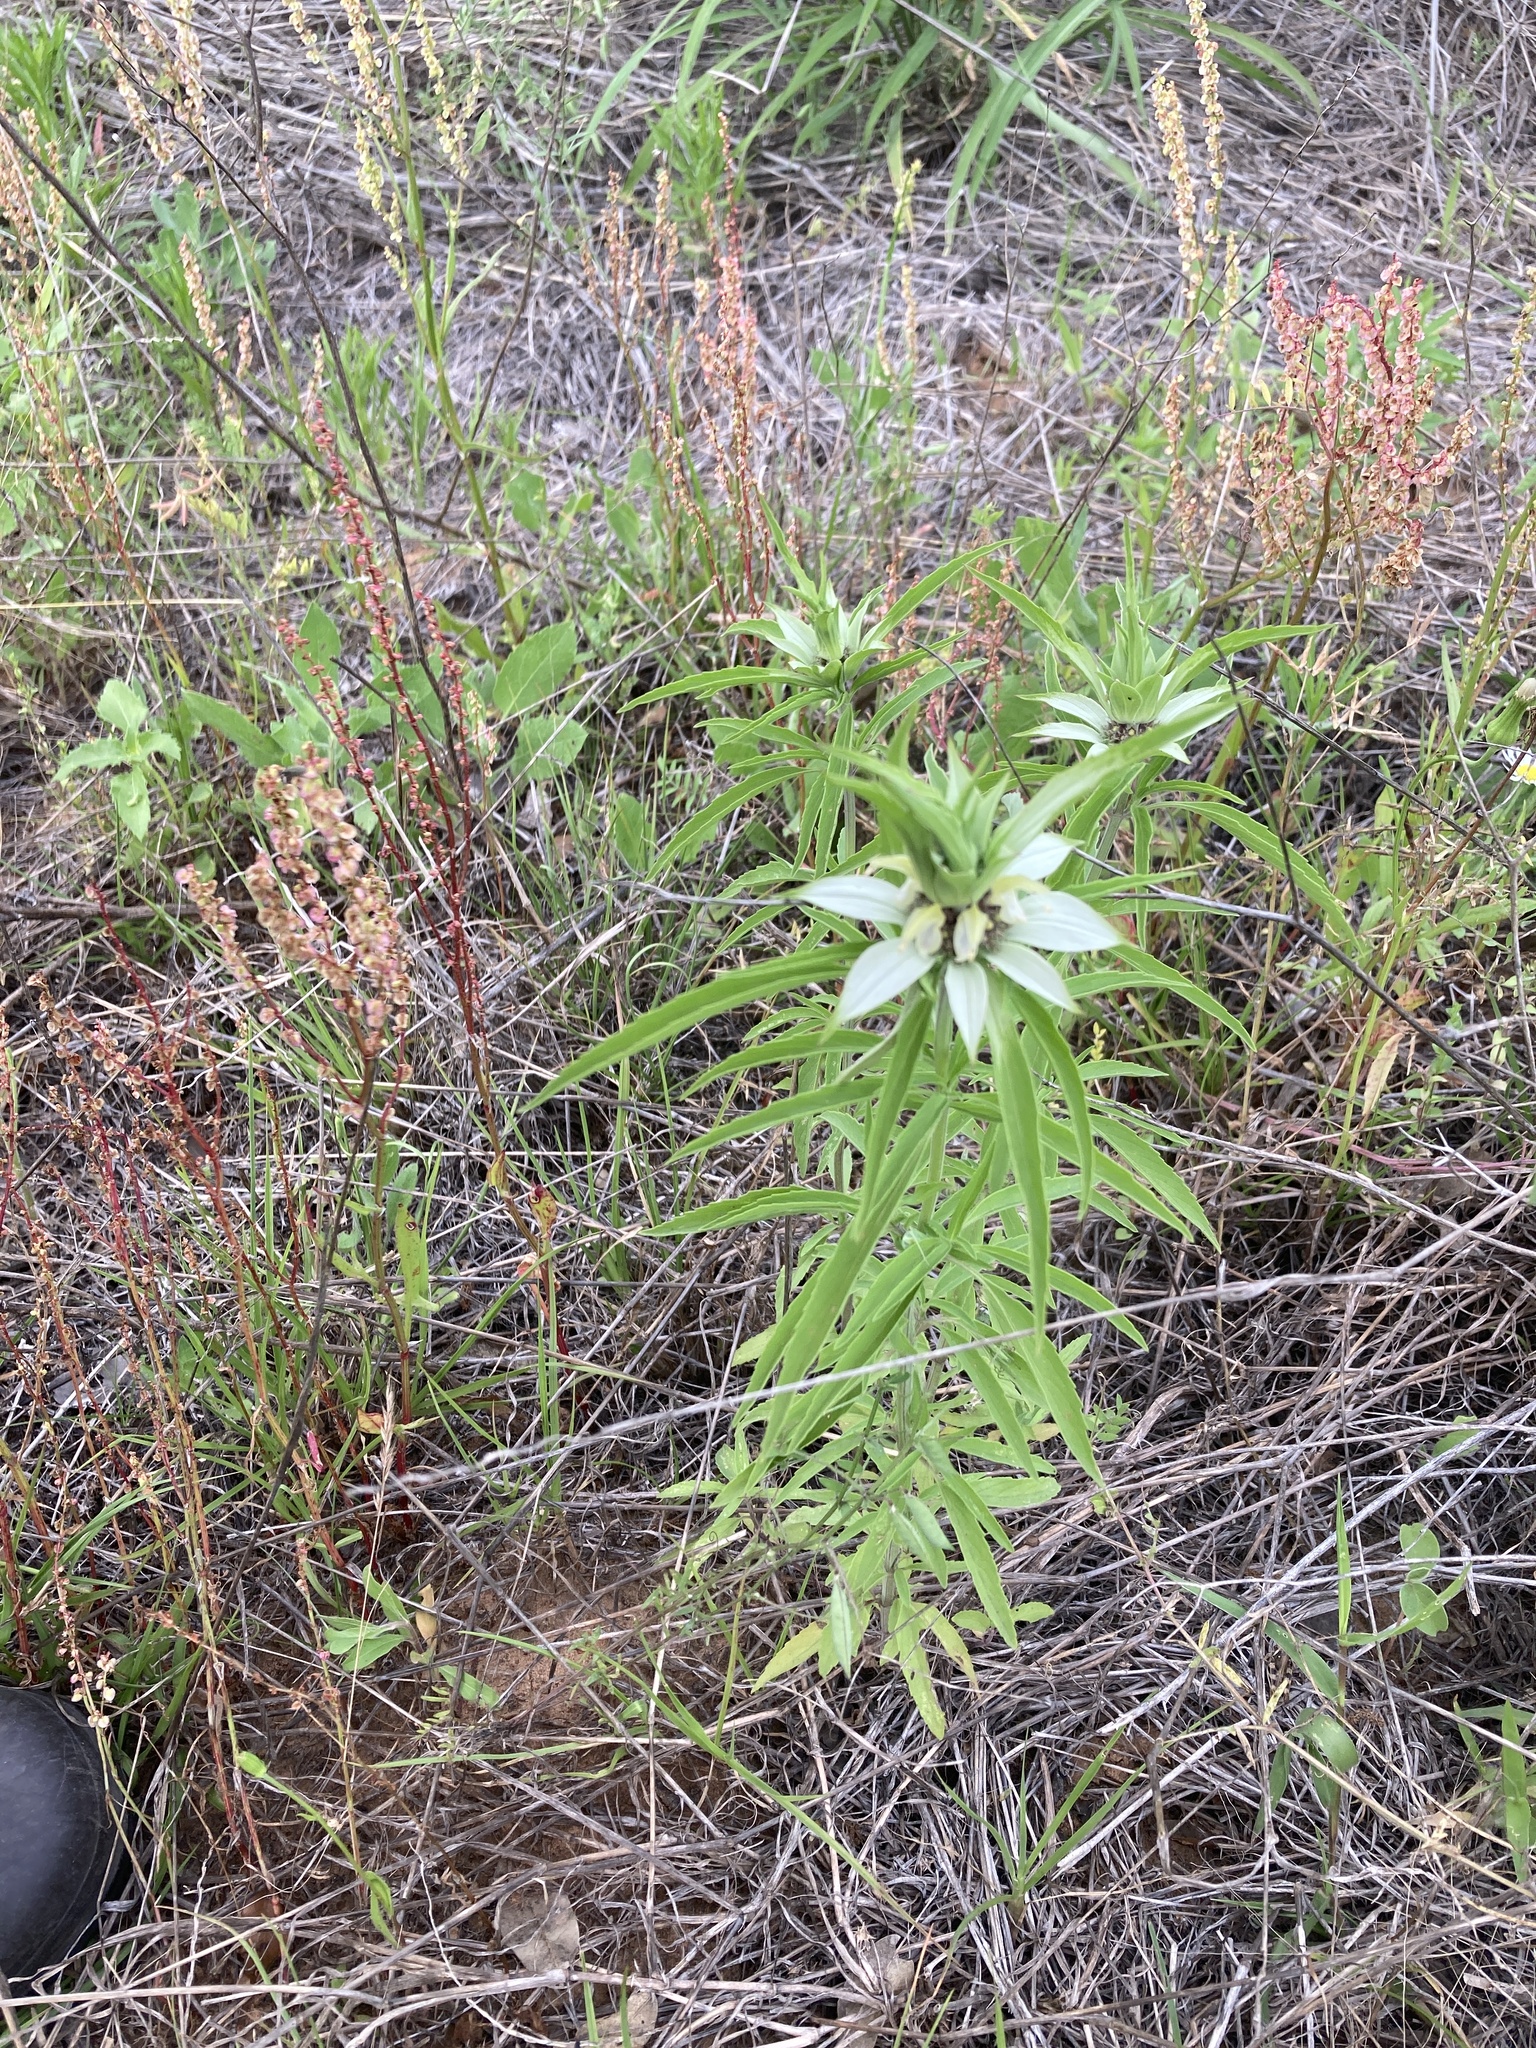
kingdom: Plantae
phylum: Tracheophyta
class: Magnoliopsida
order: Lamiales
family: Lamiaceae
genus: Monarda
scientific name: Monarda punctata
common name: Dotted monarda
